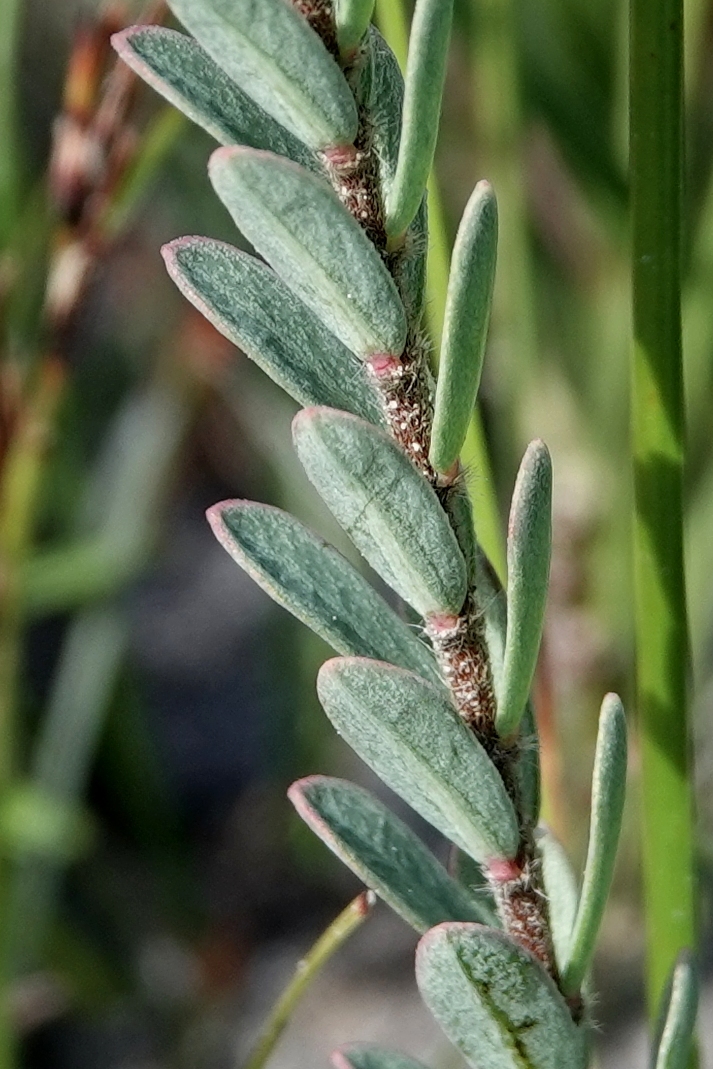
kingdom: Plantae
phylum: Tracheophyta
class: Magnoliopsida
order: Malvales
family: Thymelaeaceae
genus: Pimelea
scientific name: Pimelea humilis
